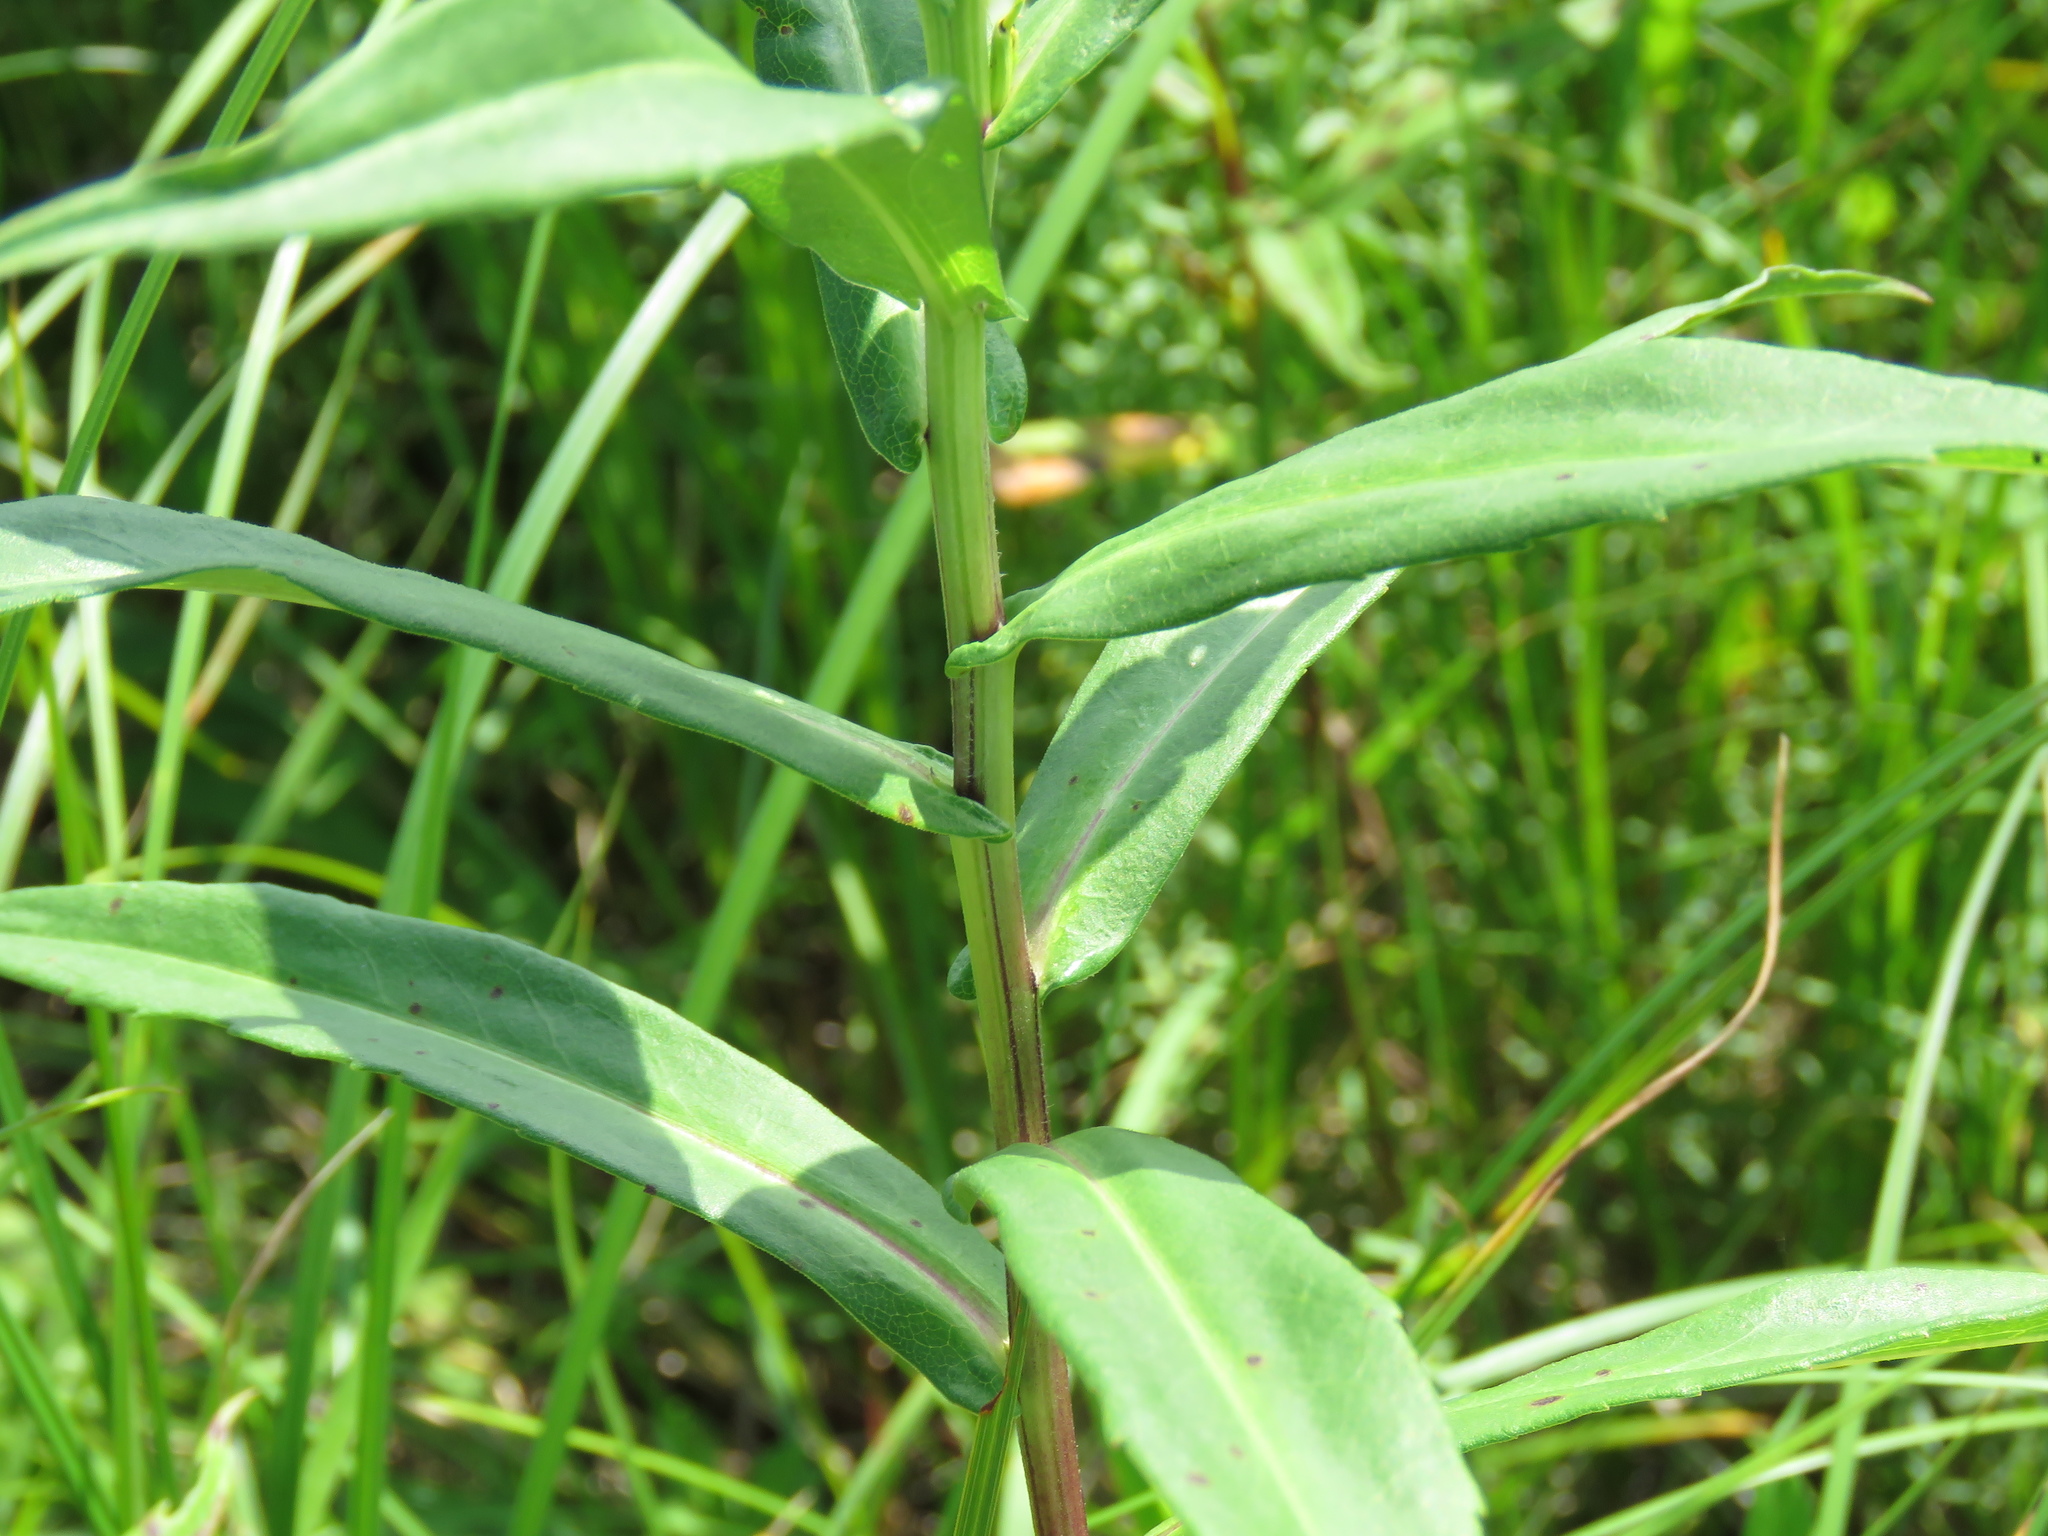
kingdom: Plantae
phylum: Tracheophyta
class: Magnoliopsida
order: Asterales
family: Asteraceae
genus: Symphyotrichum
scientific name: Symphyotrichum firmum
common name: Shining aster
